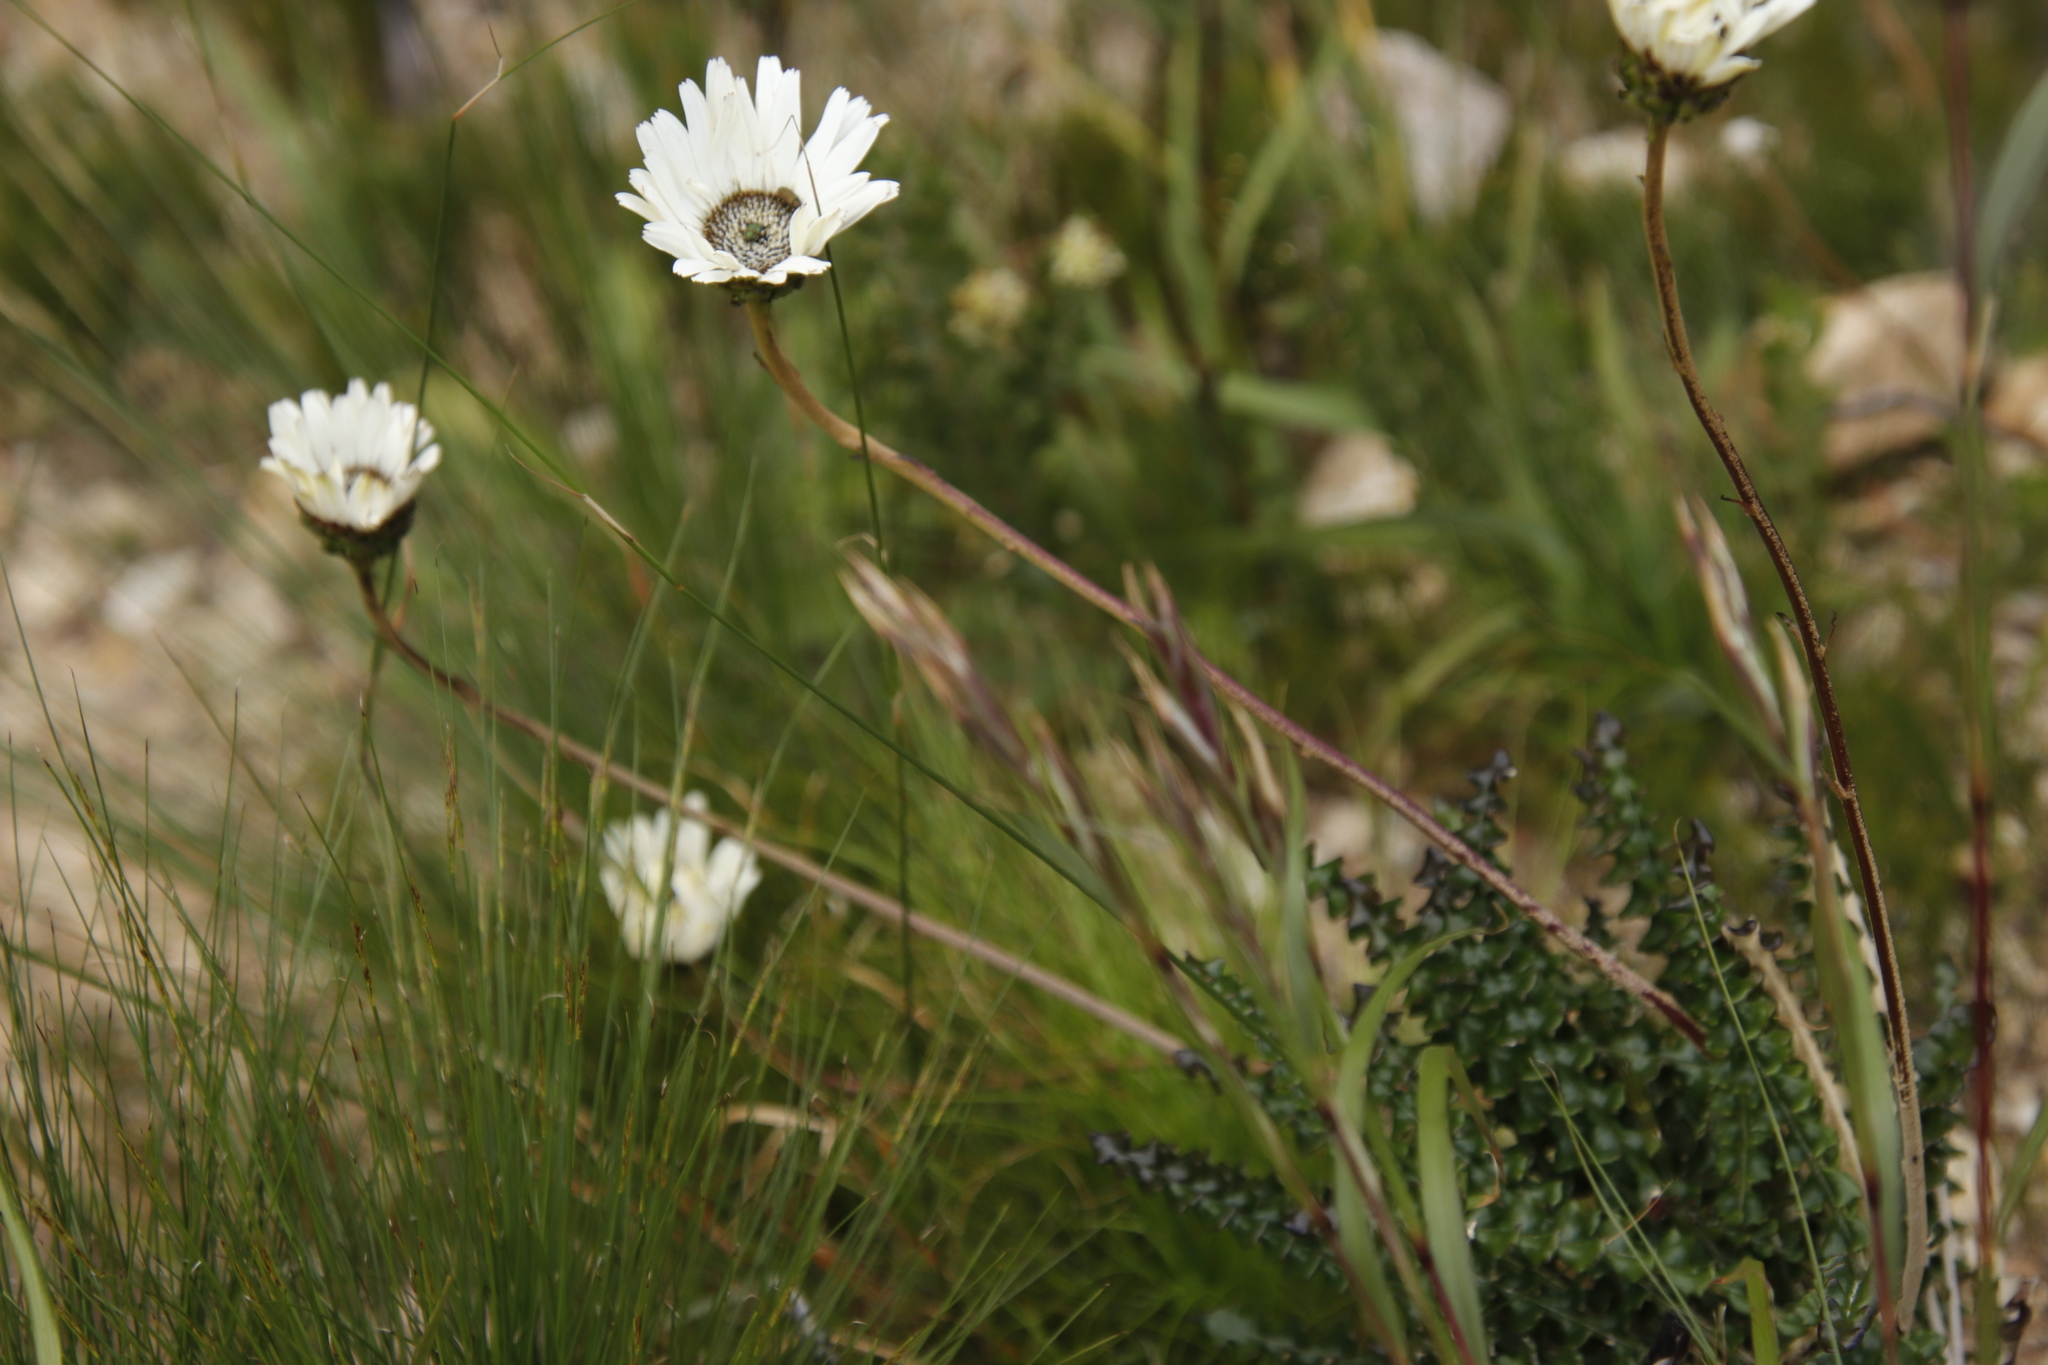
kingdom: Plantae
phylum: Tracheophyta
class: Magnoliopsida
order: Asterales
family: Asteraceae
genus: Gerbera
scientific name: Gerbera linnaei
